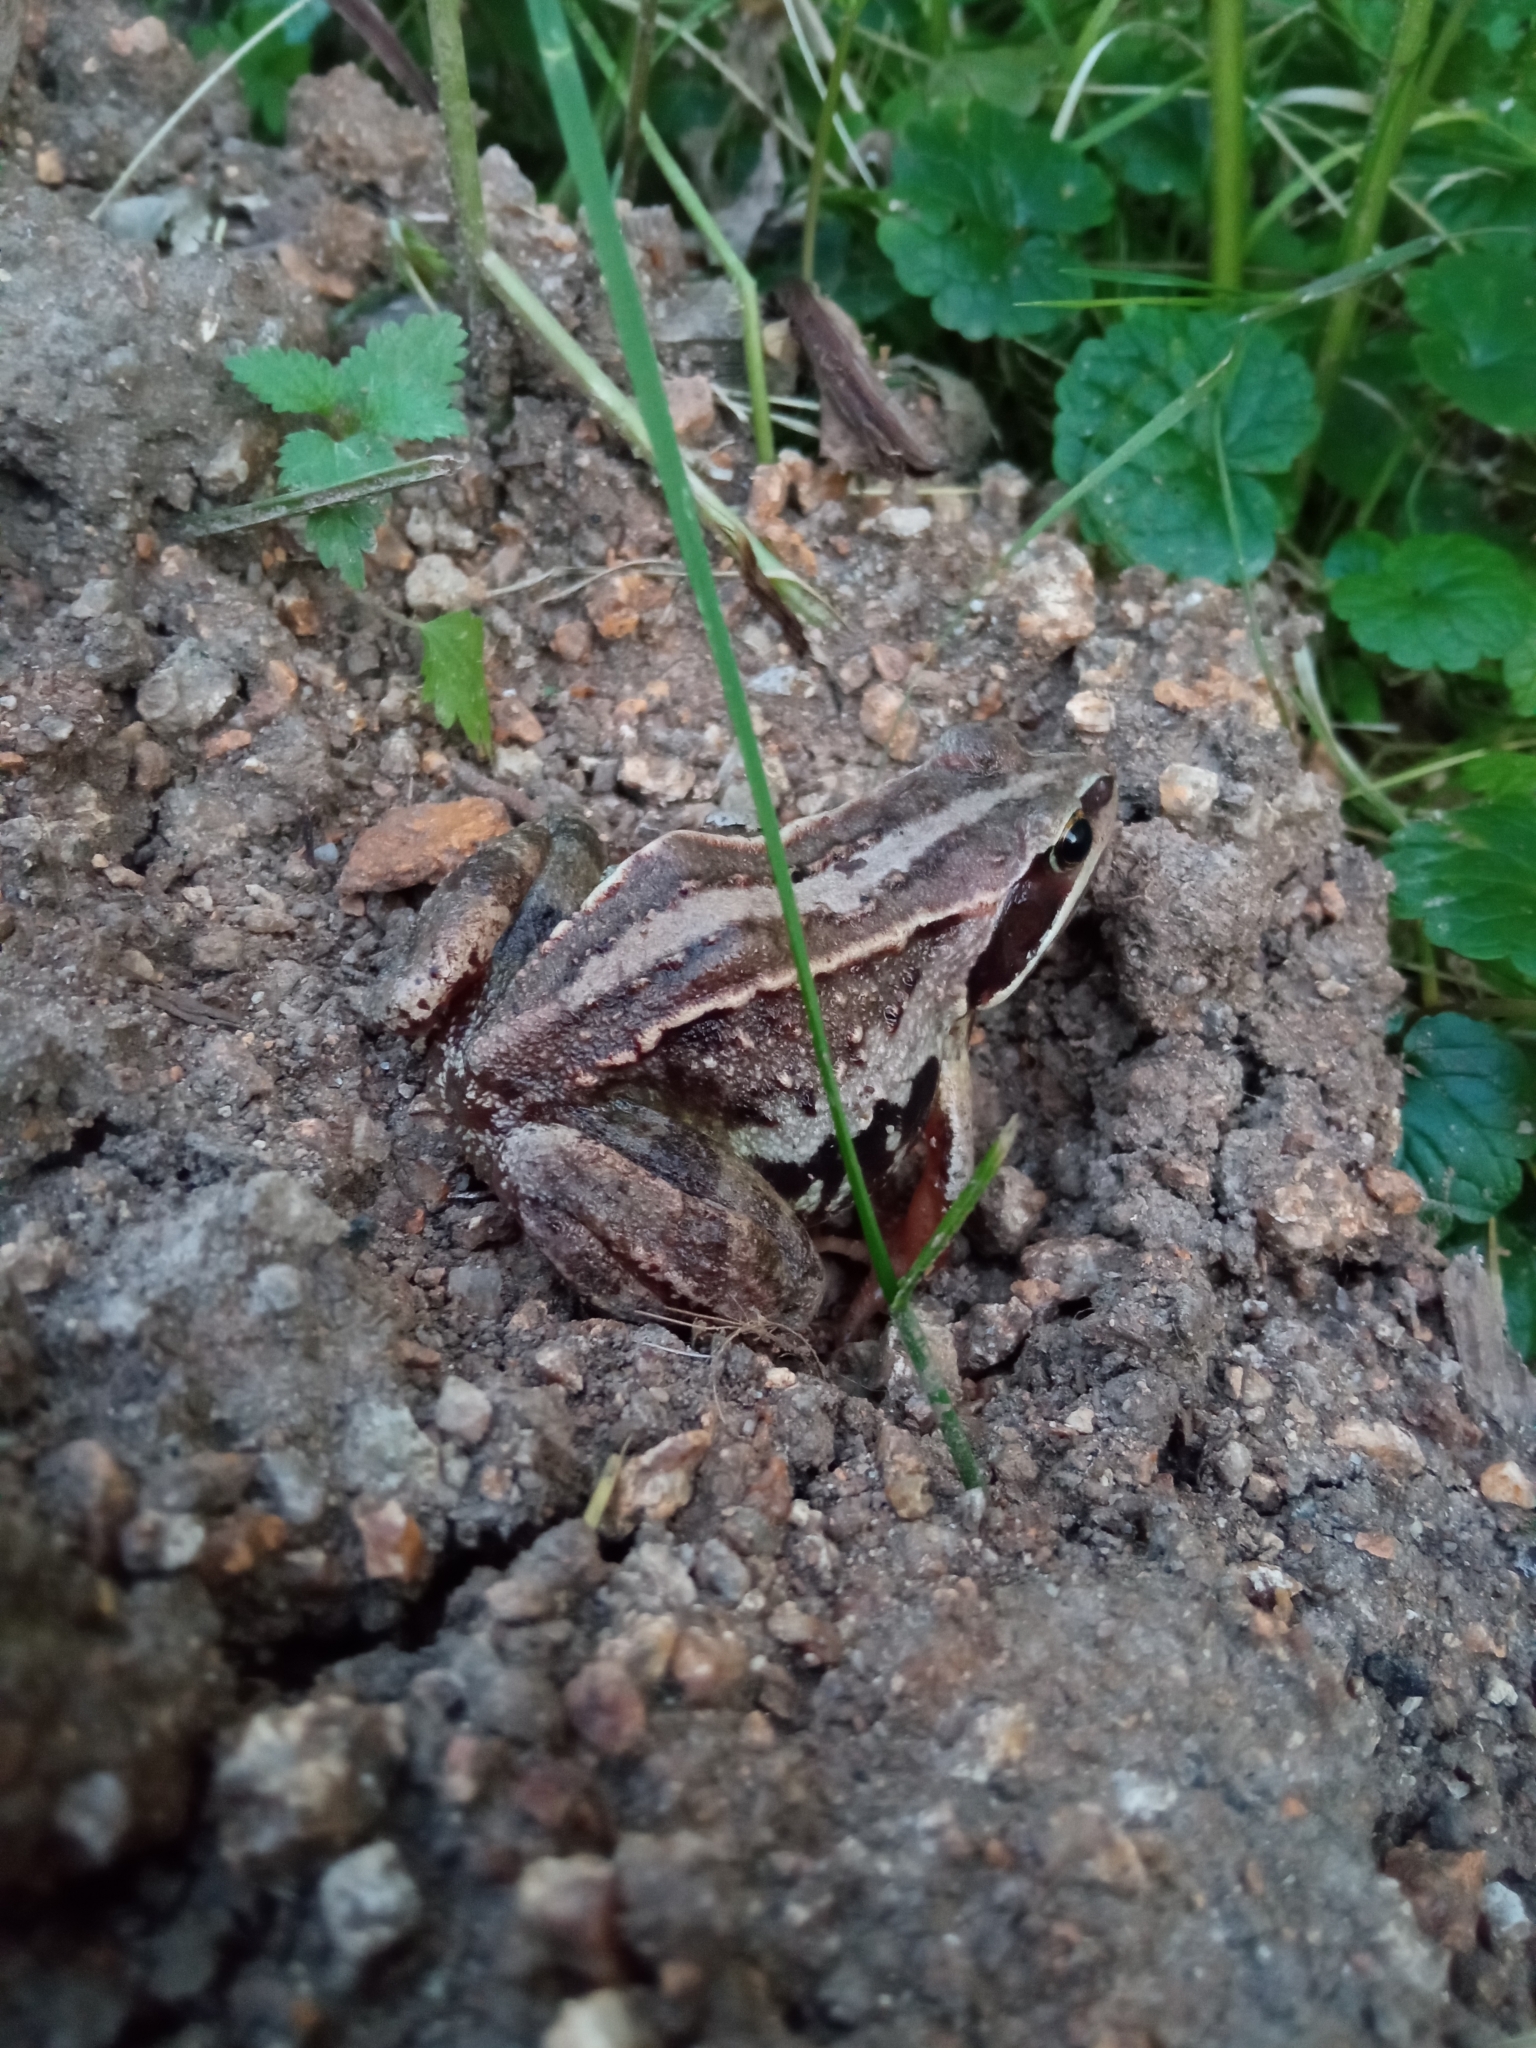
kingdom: Animalia
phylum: Chordata
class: Amphibia
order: Anura
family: Ranidae
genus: Rana
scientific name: Rana arvalis
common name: Moor frog
